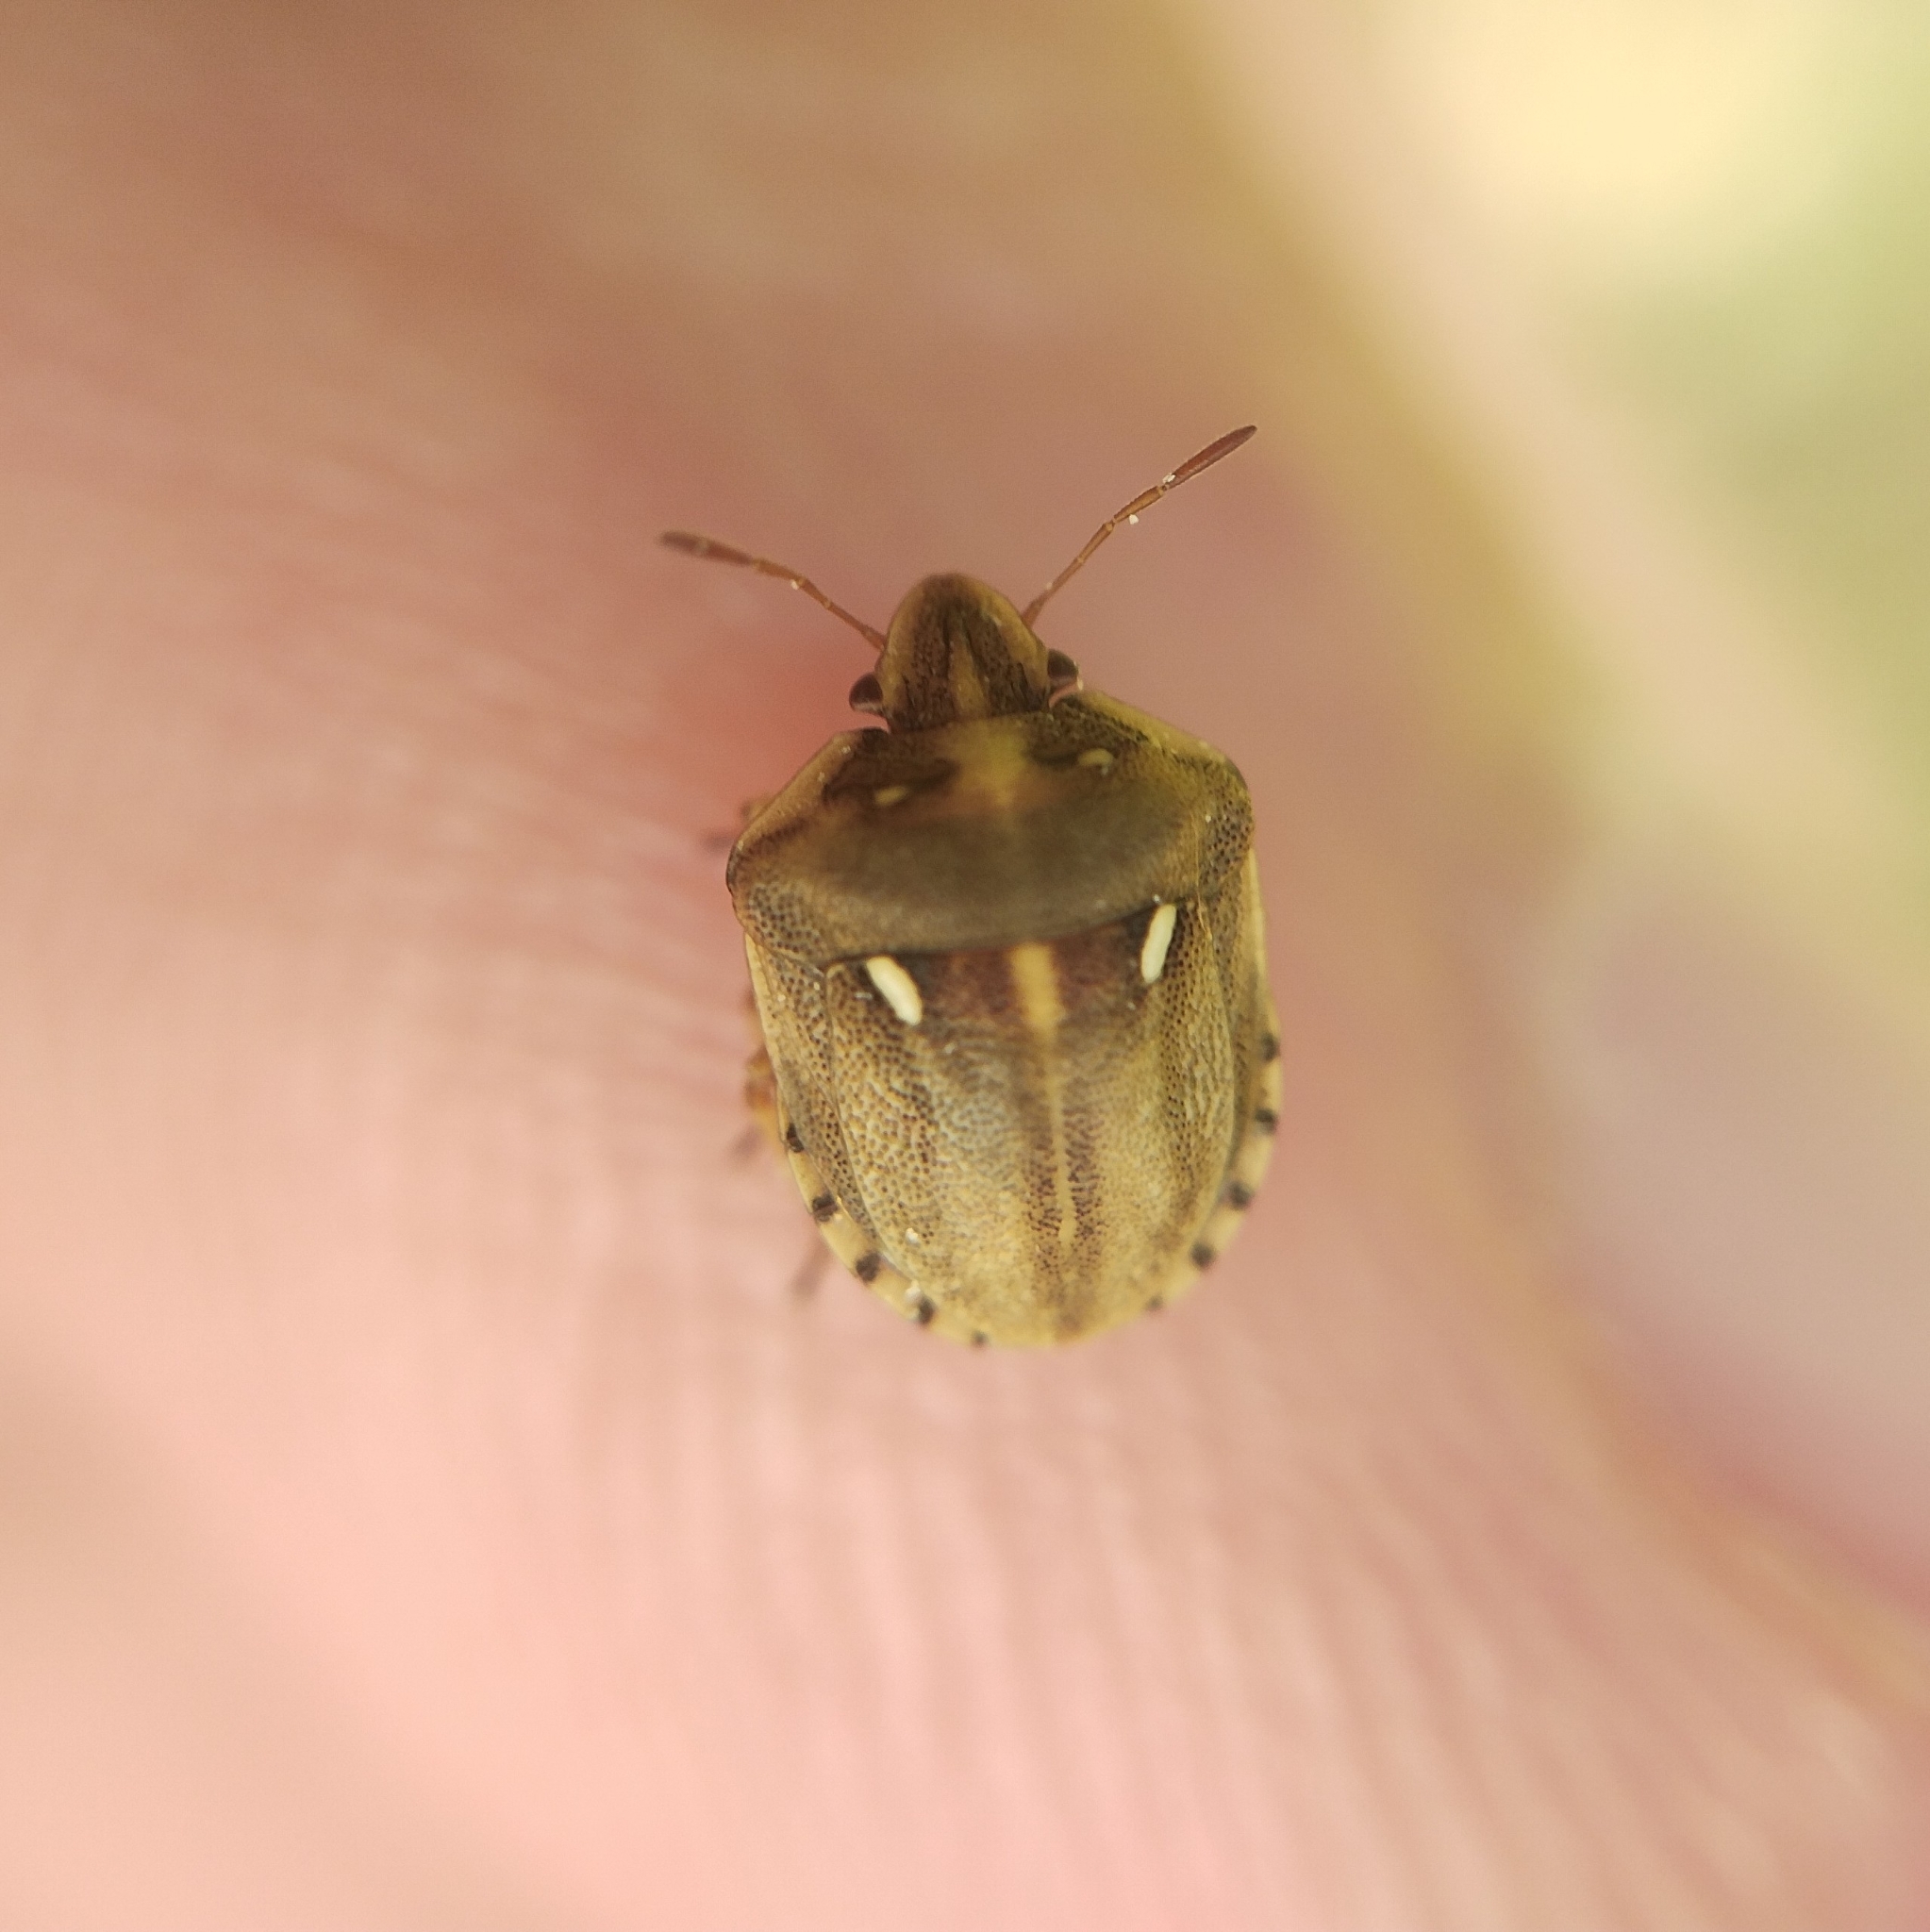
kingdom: Animalia
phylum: Arthropoda
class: Insecta
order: Hemiptera
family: Pentatomidae
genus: Derula
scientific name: Derula flavoguttata
